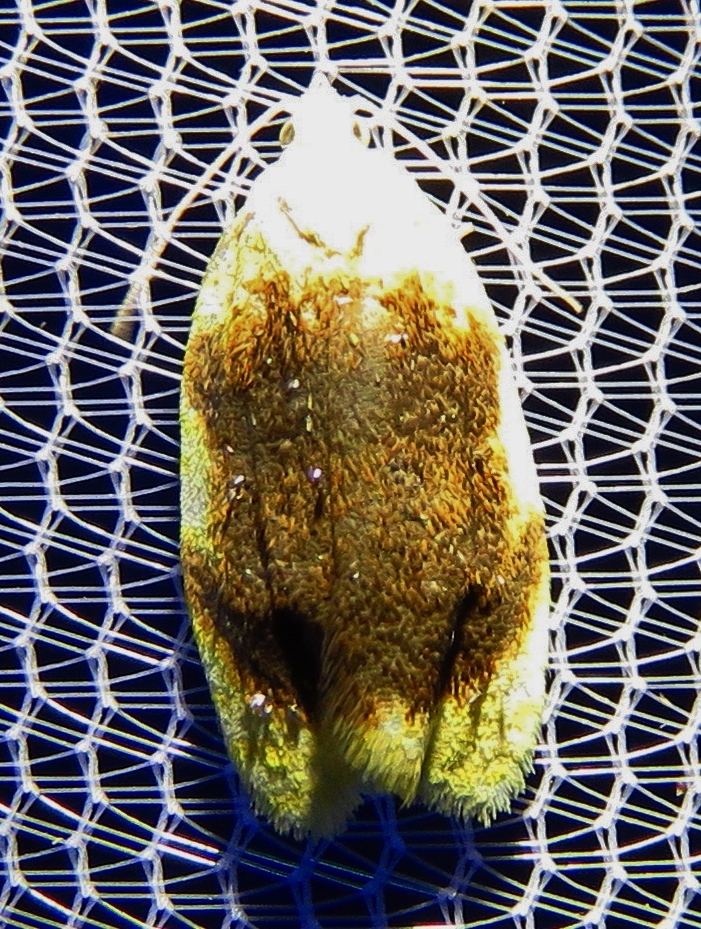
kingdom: Animalia
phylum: Arthropoda
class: Insecta
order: Lepidoptera
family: Tortricidae
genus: Acleris
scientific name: Acleris semipurpurana
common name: Oak leaftier moth
